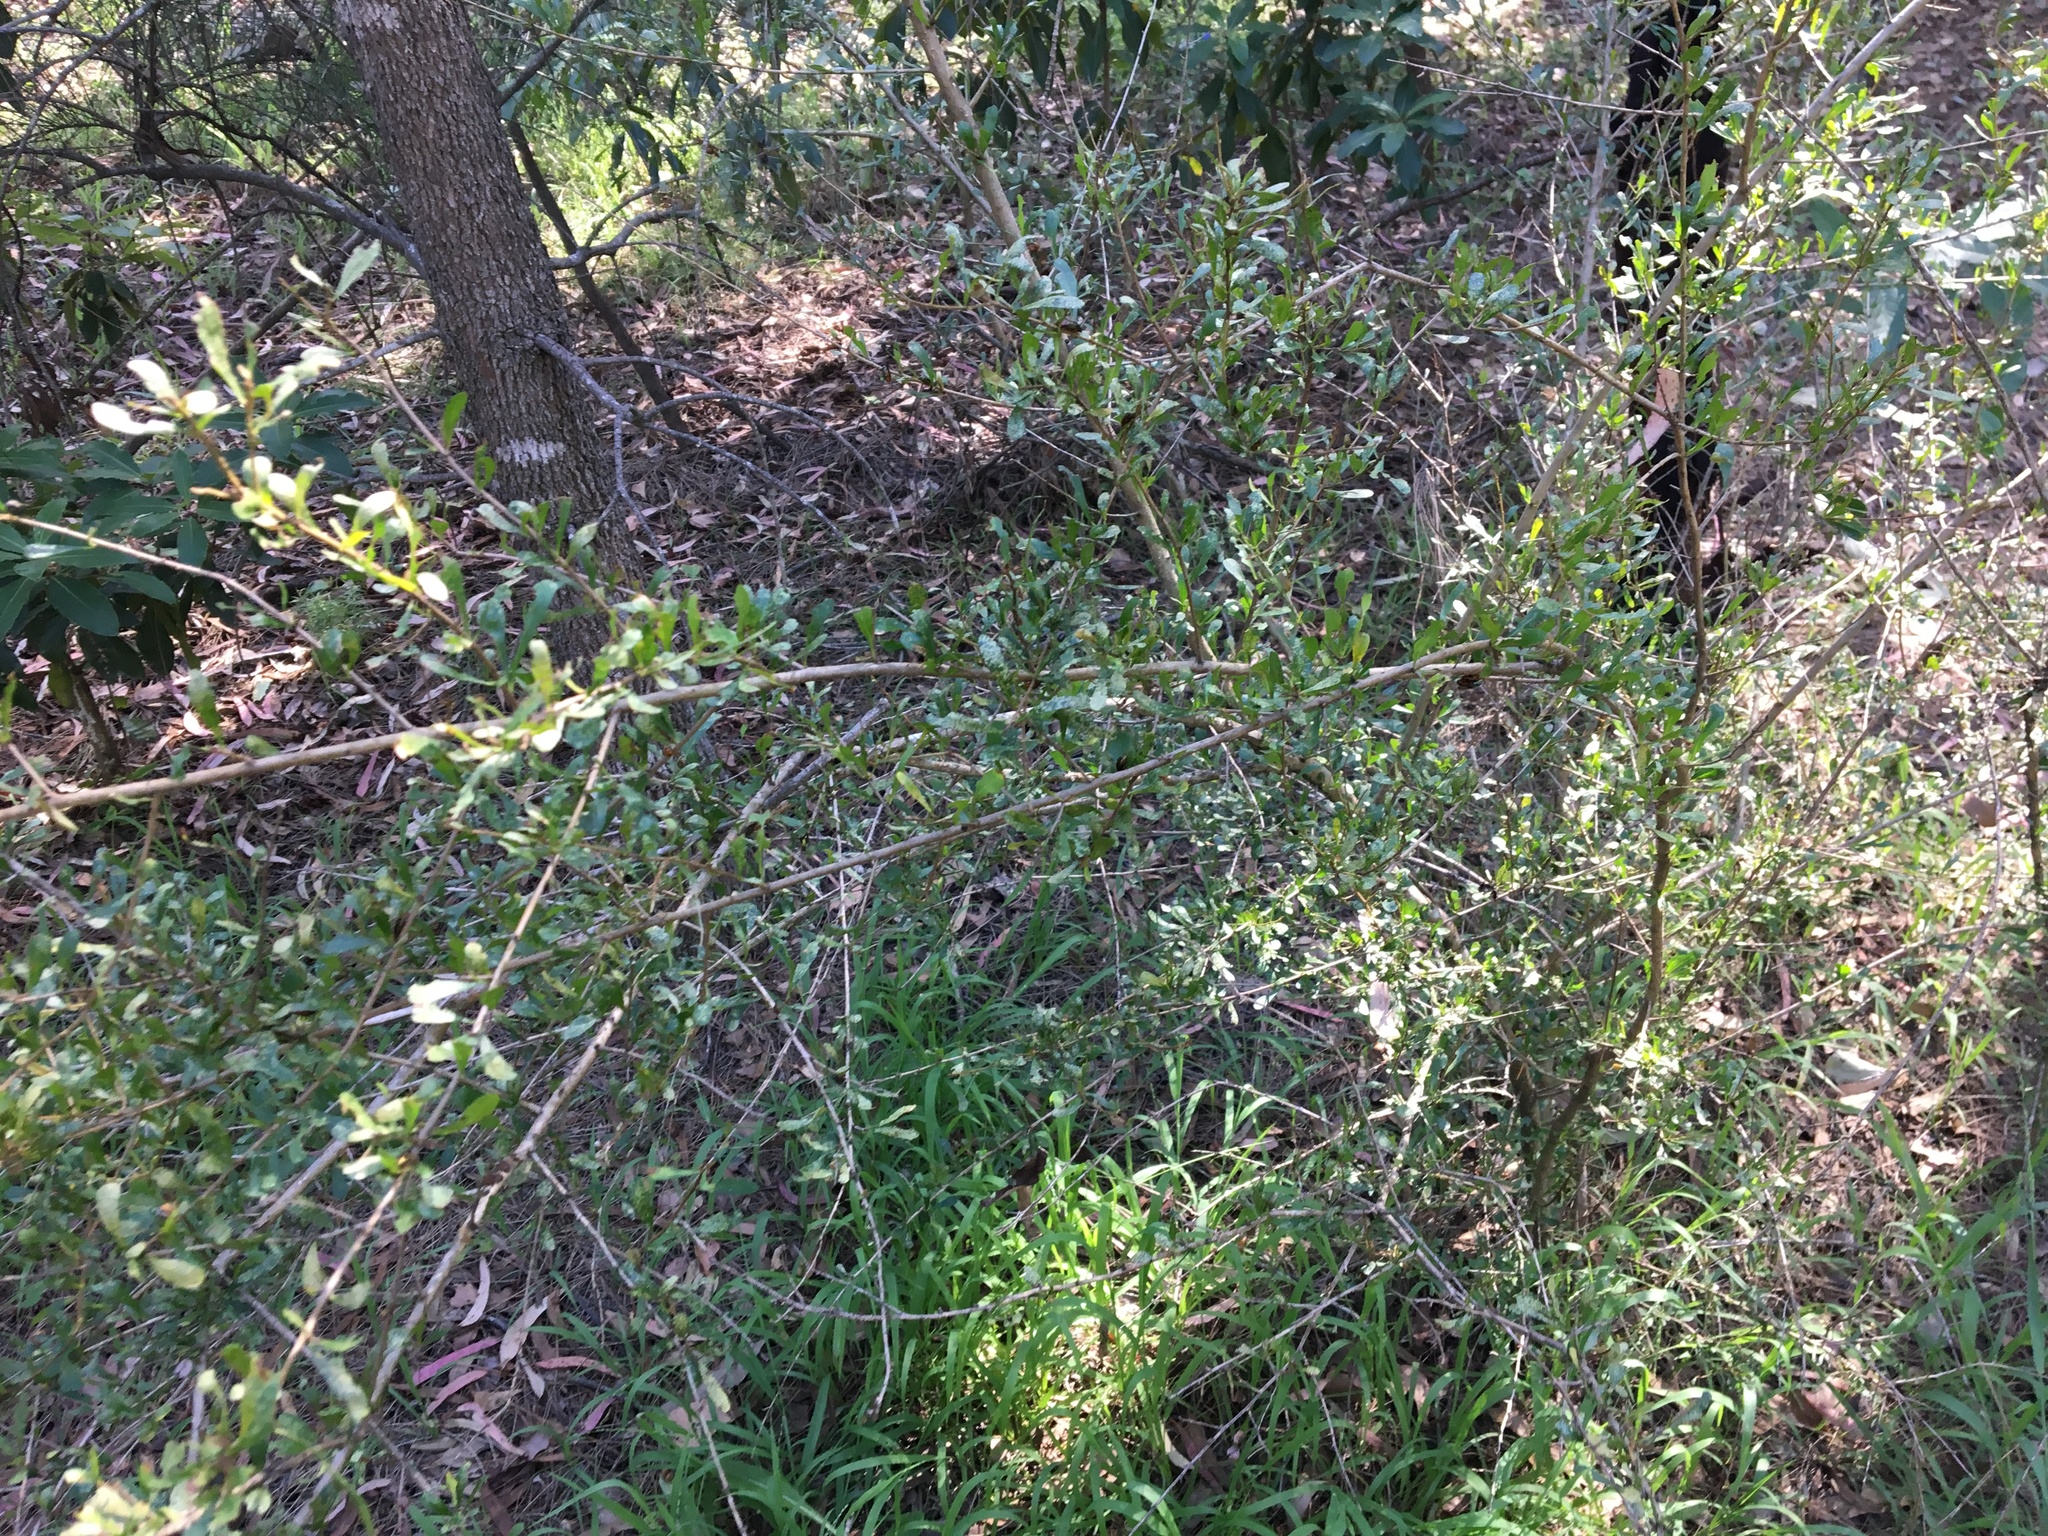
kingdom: Plantae
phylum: Tracheophyta
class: Magnoliopsida
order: Apiales
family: Pittosporaceae
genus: Bursaria
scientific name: Bursaria spinosa
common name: Australian blackthorn
